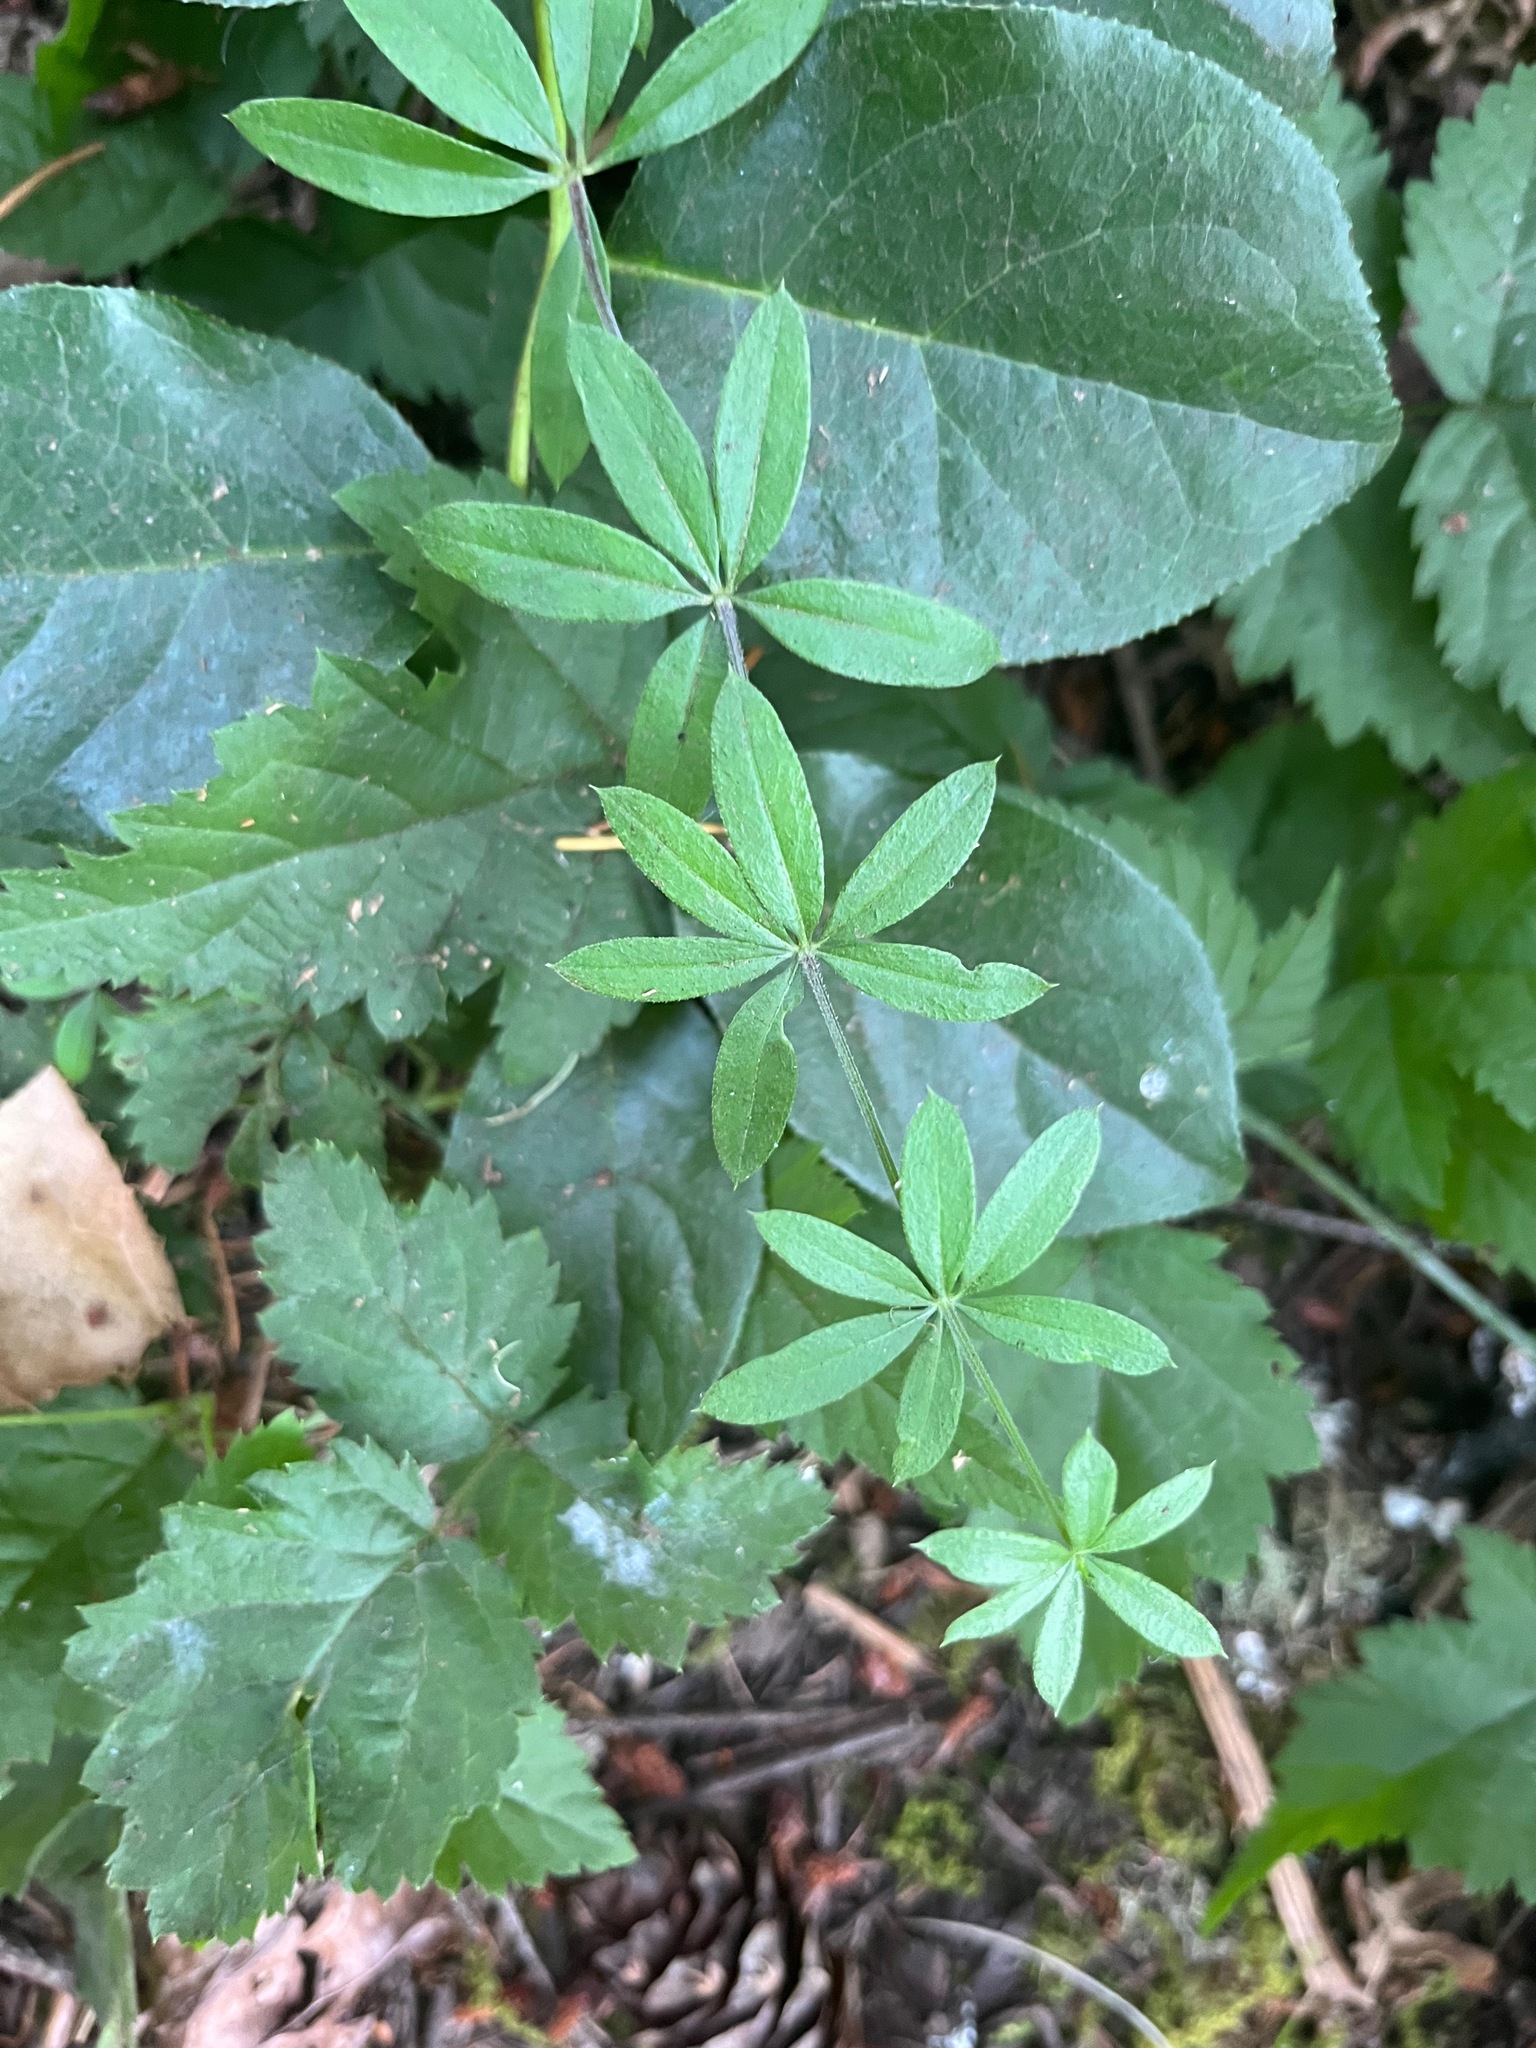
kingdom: Plantae
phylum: Tracheophyta
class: Magnoliopsida
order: Gentianales
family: Rubiaceae
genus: Galium
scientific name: Galium triflorum
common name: Fragrant bedstraw
